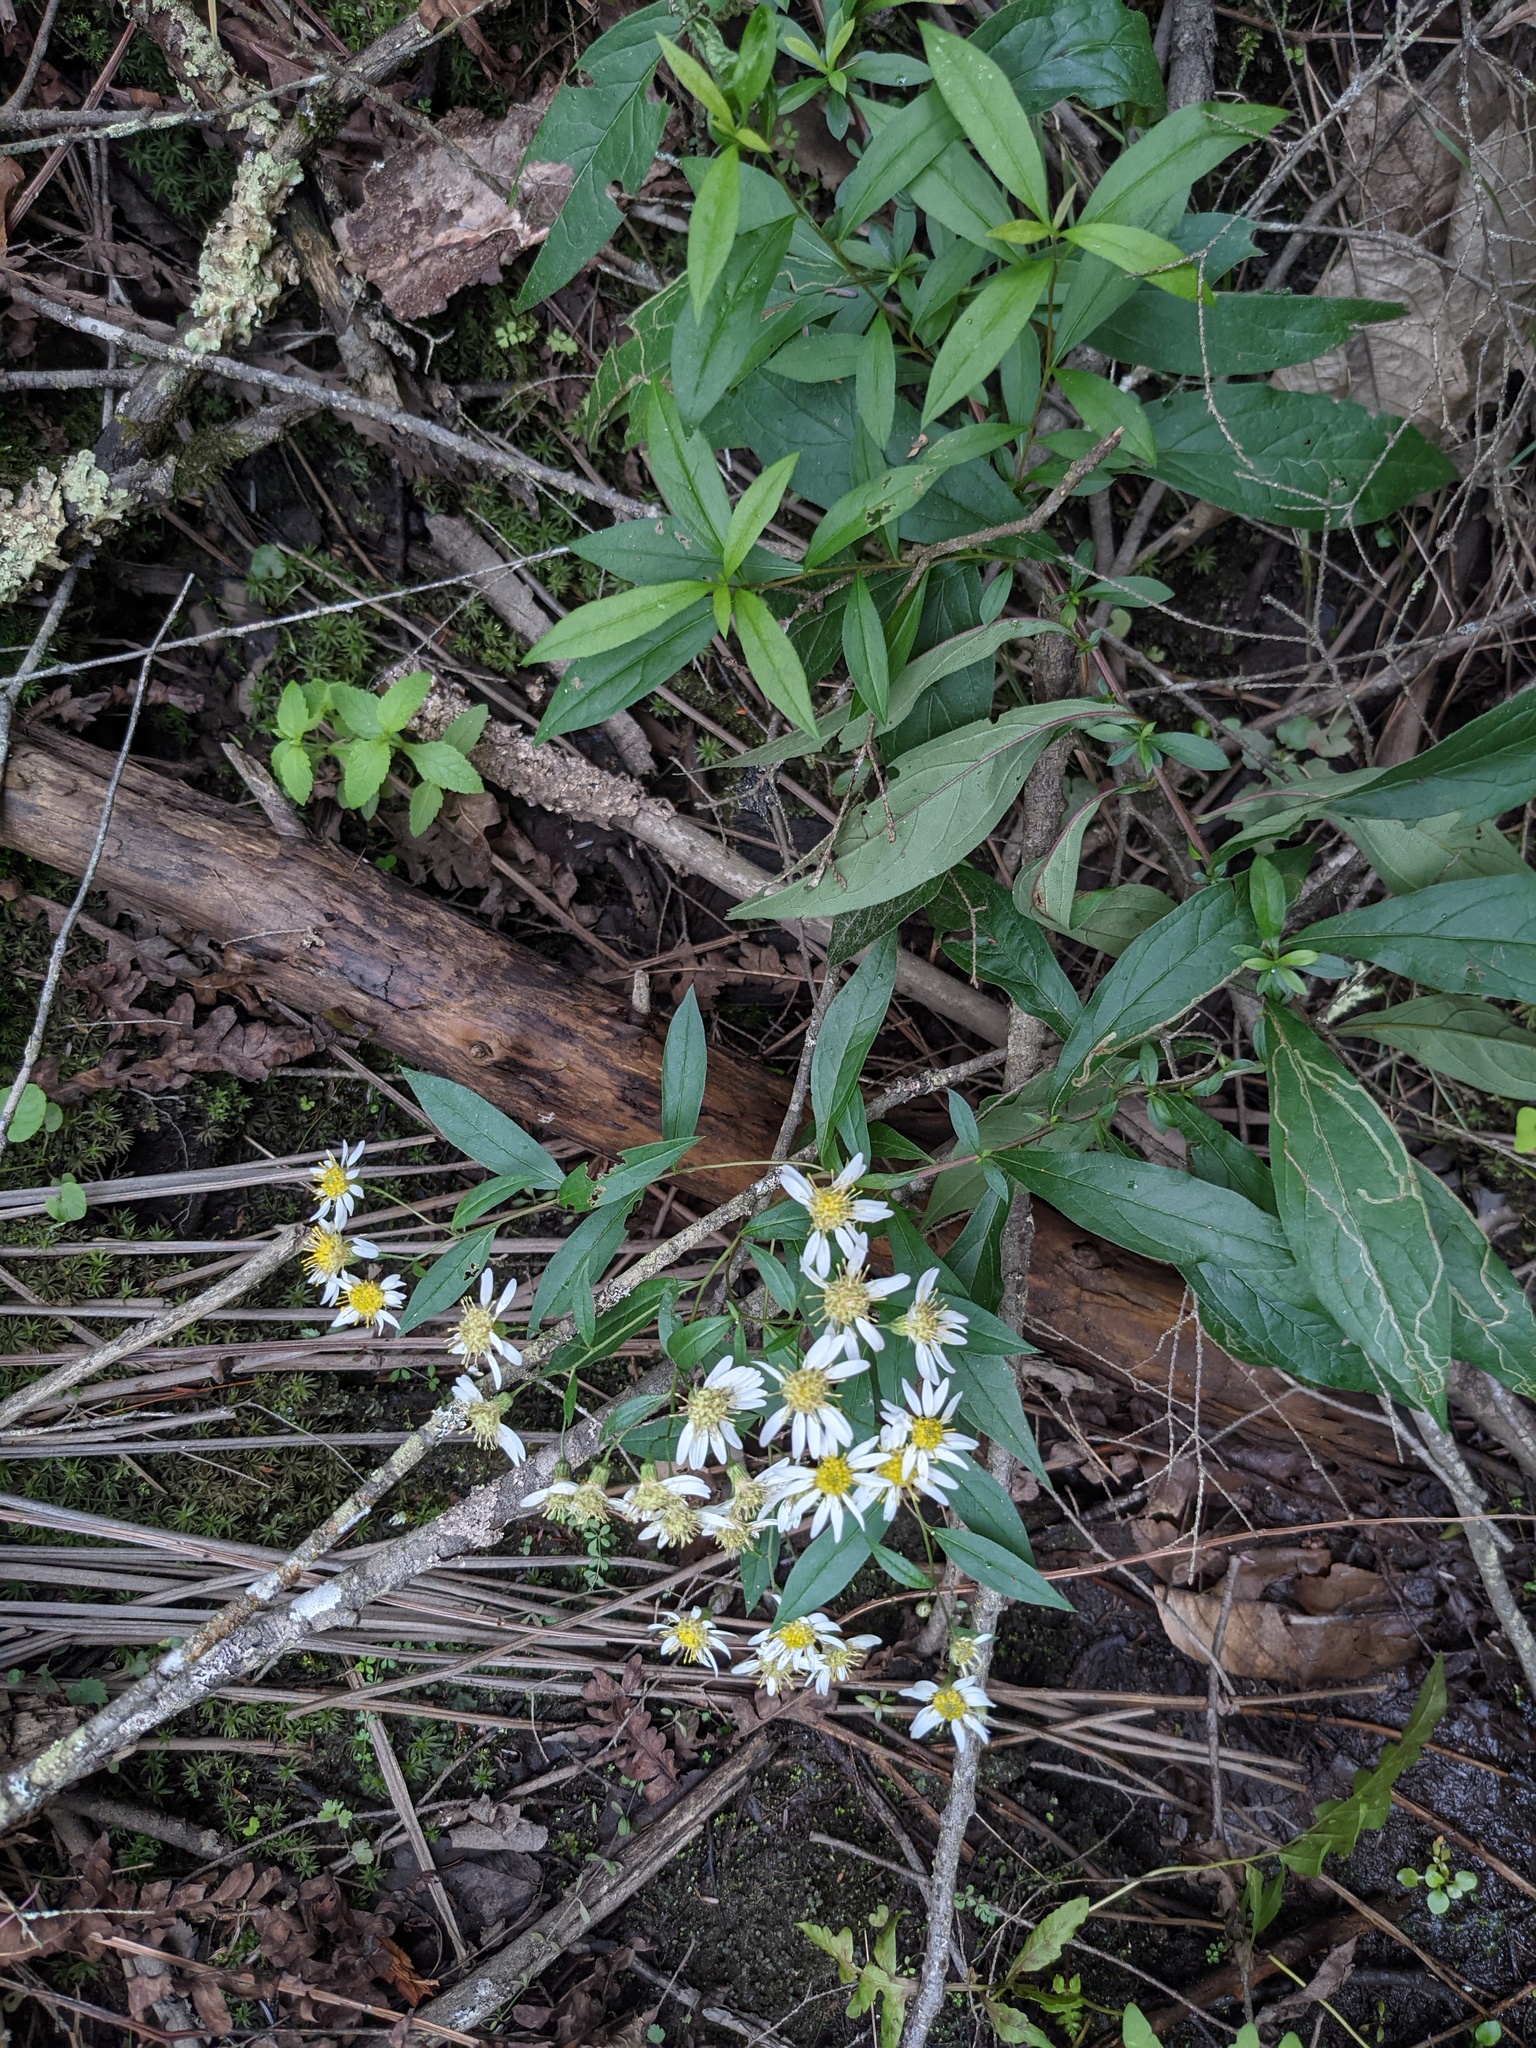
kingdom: Plantae
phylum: Tracheophyta
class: Magnoliopsida
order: Asterales
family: Asteraceae
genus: Doellingeria
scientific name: Doellingeria umbellata
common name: Flat-top white aster
